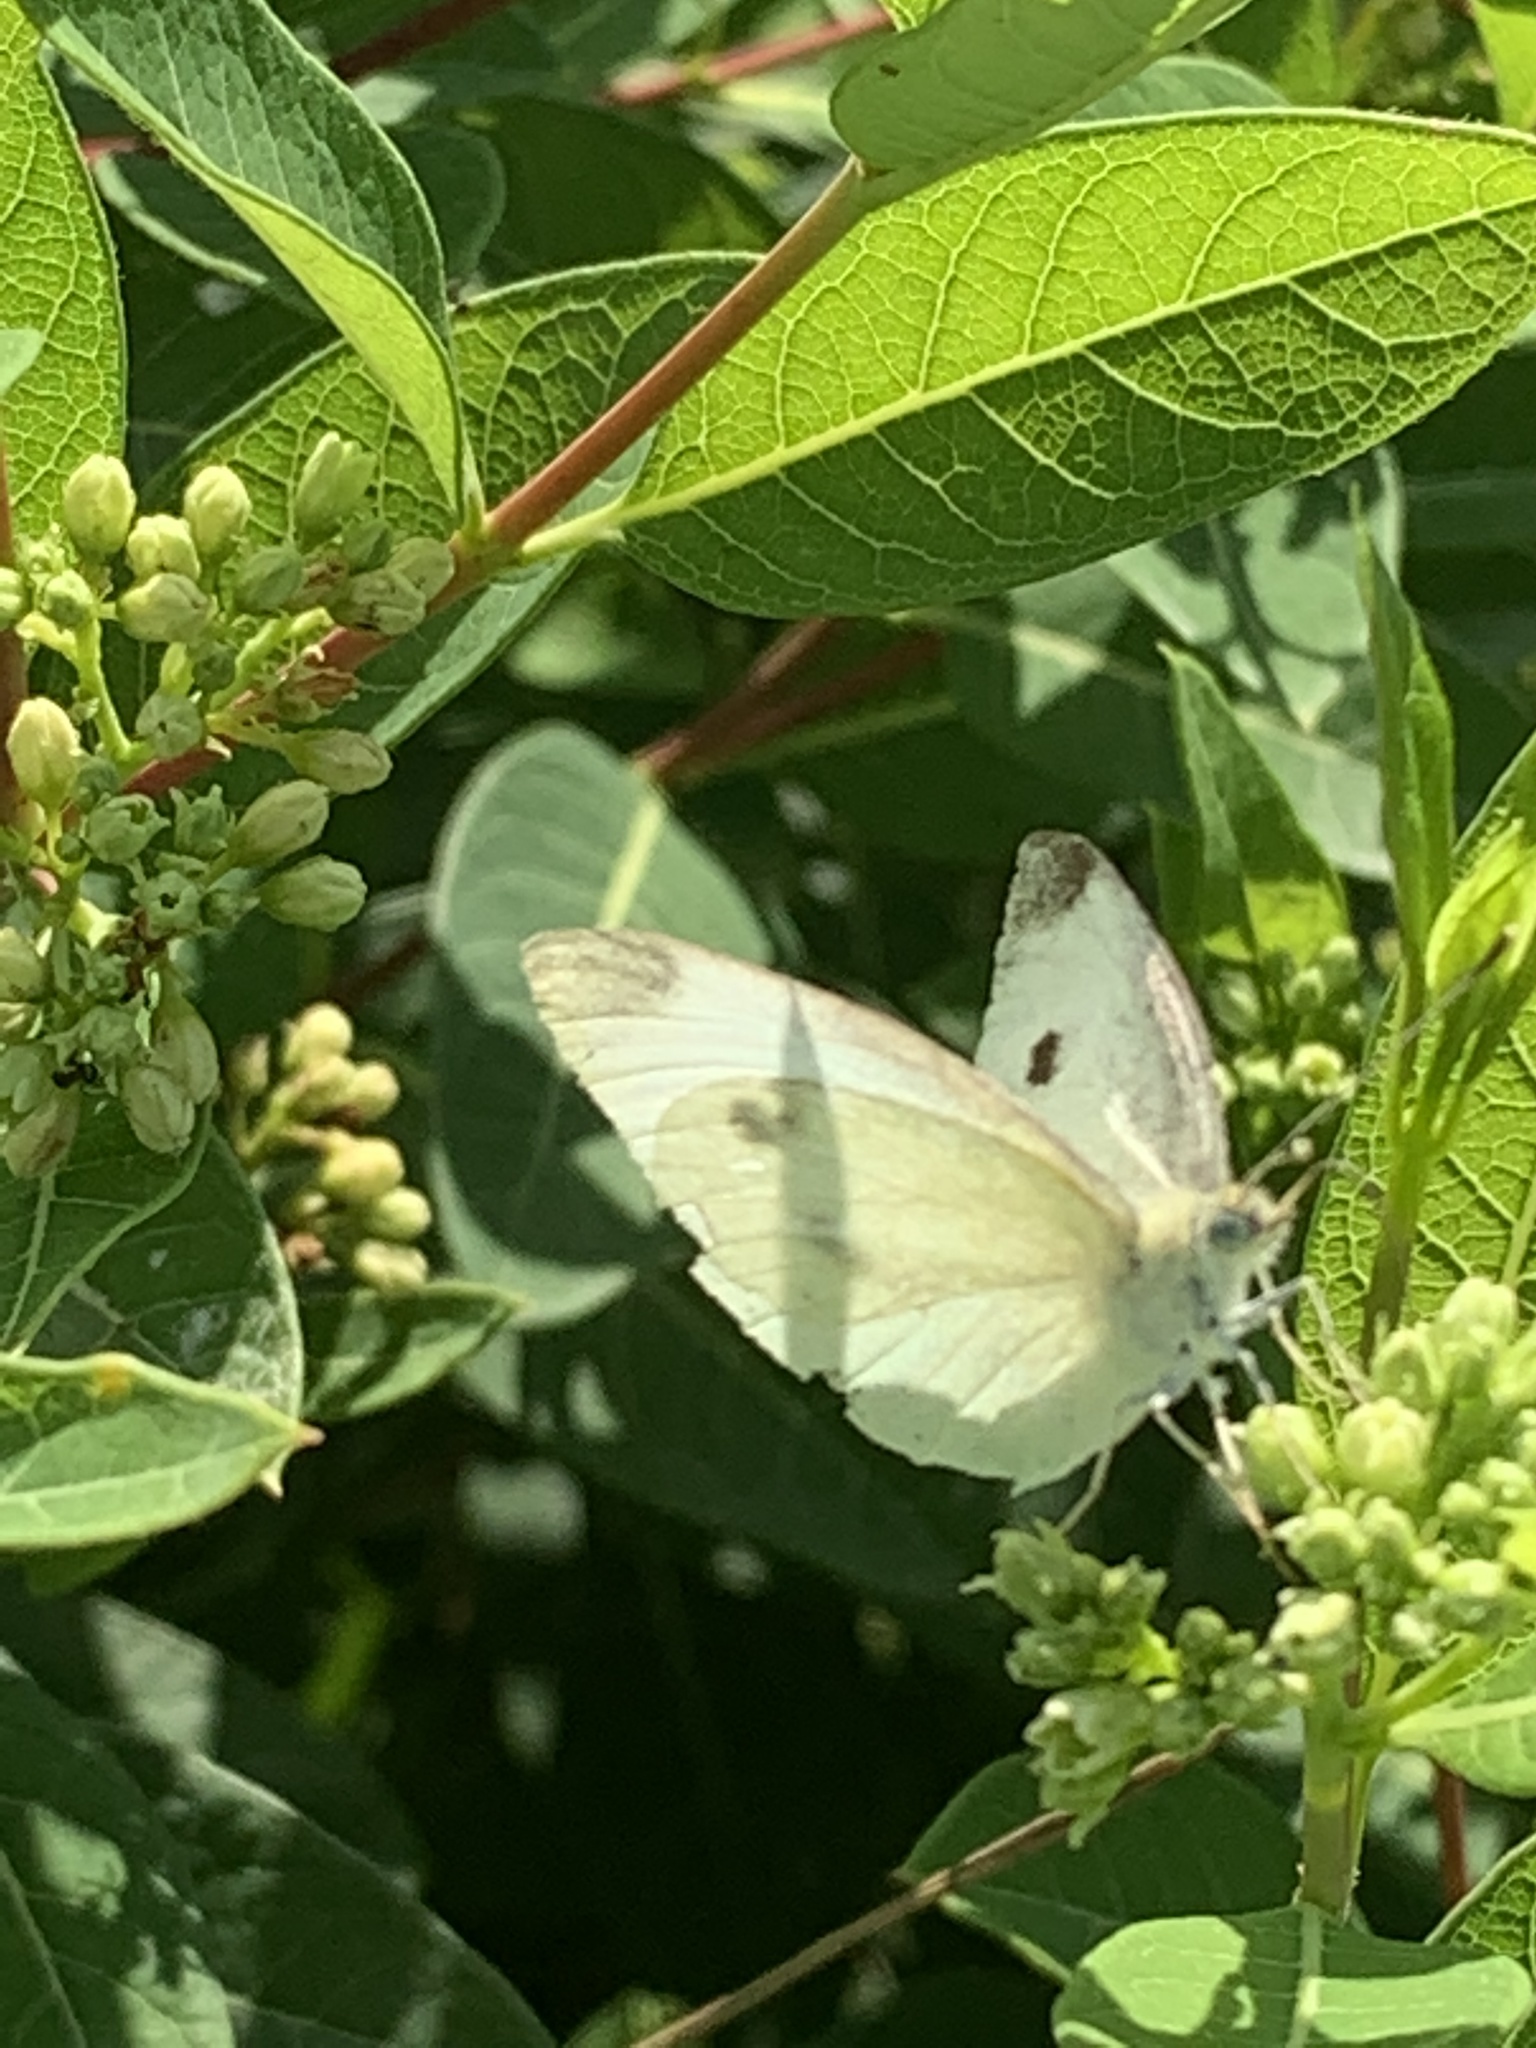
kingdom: Animalia
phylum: Arthropoda
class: Insecta
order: Lepidoptera
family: Pieridae
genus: Pieris
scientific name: Pieris rapae
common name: Small white
